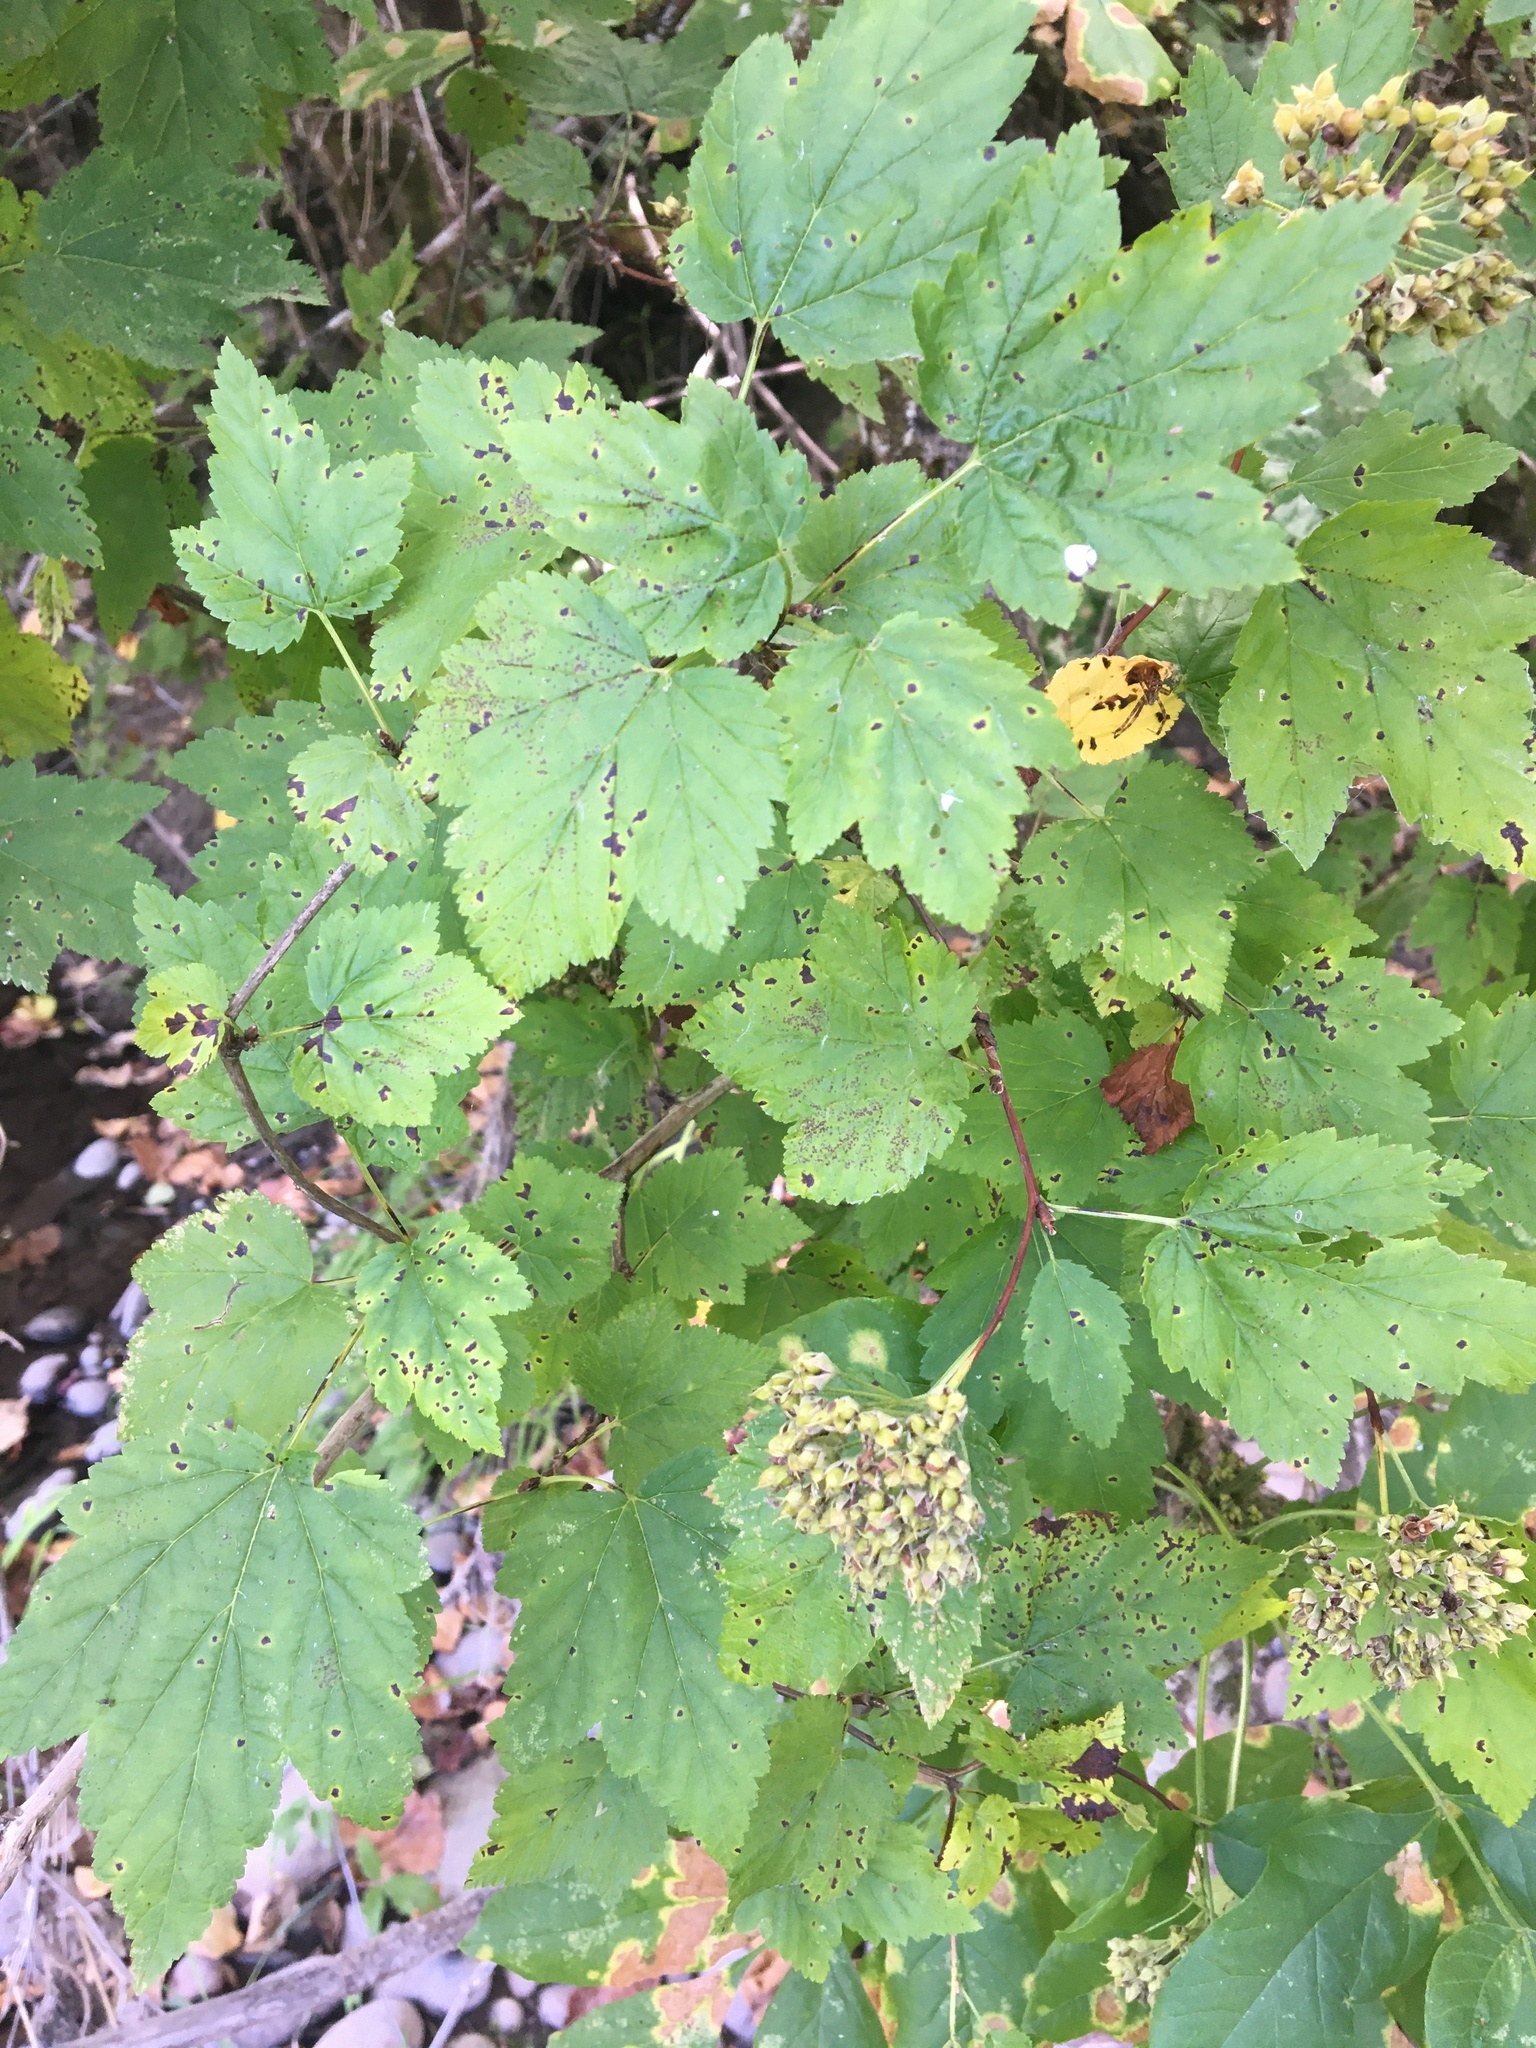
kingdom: Plantae
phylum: Tracheophyta
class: Magnoliopsida
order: Rosales
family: Rosaceae
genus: Physocarpus
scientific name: Physocarpus capitatus
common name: Pacific ninebark
